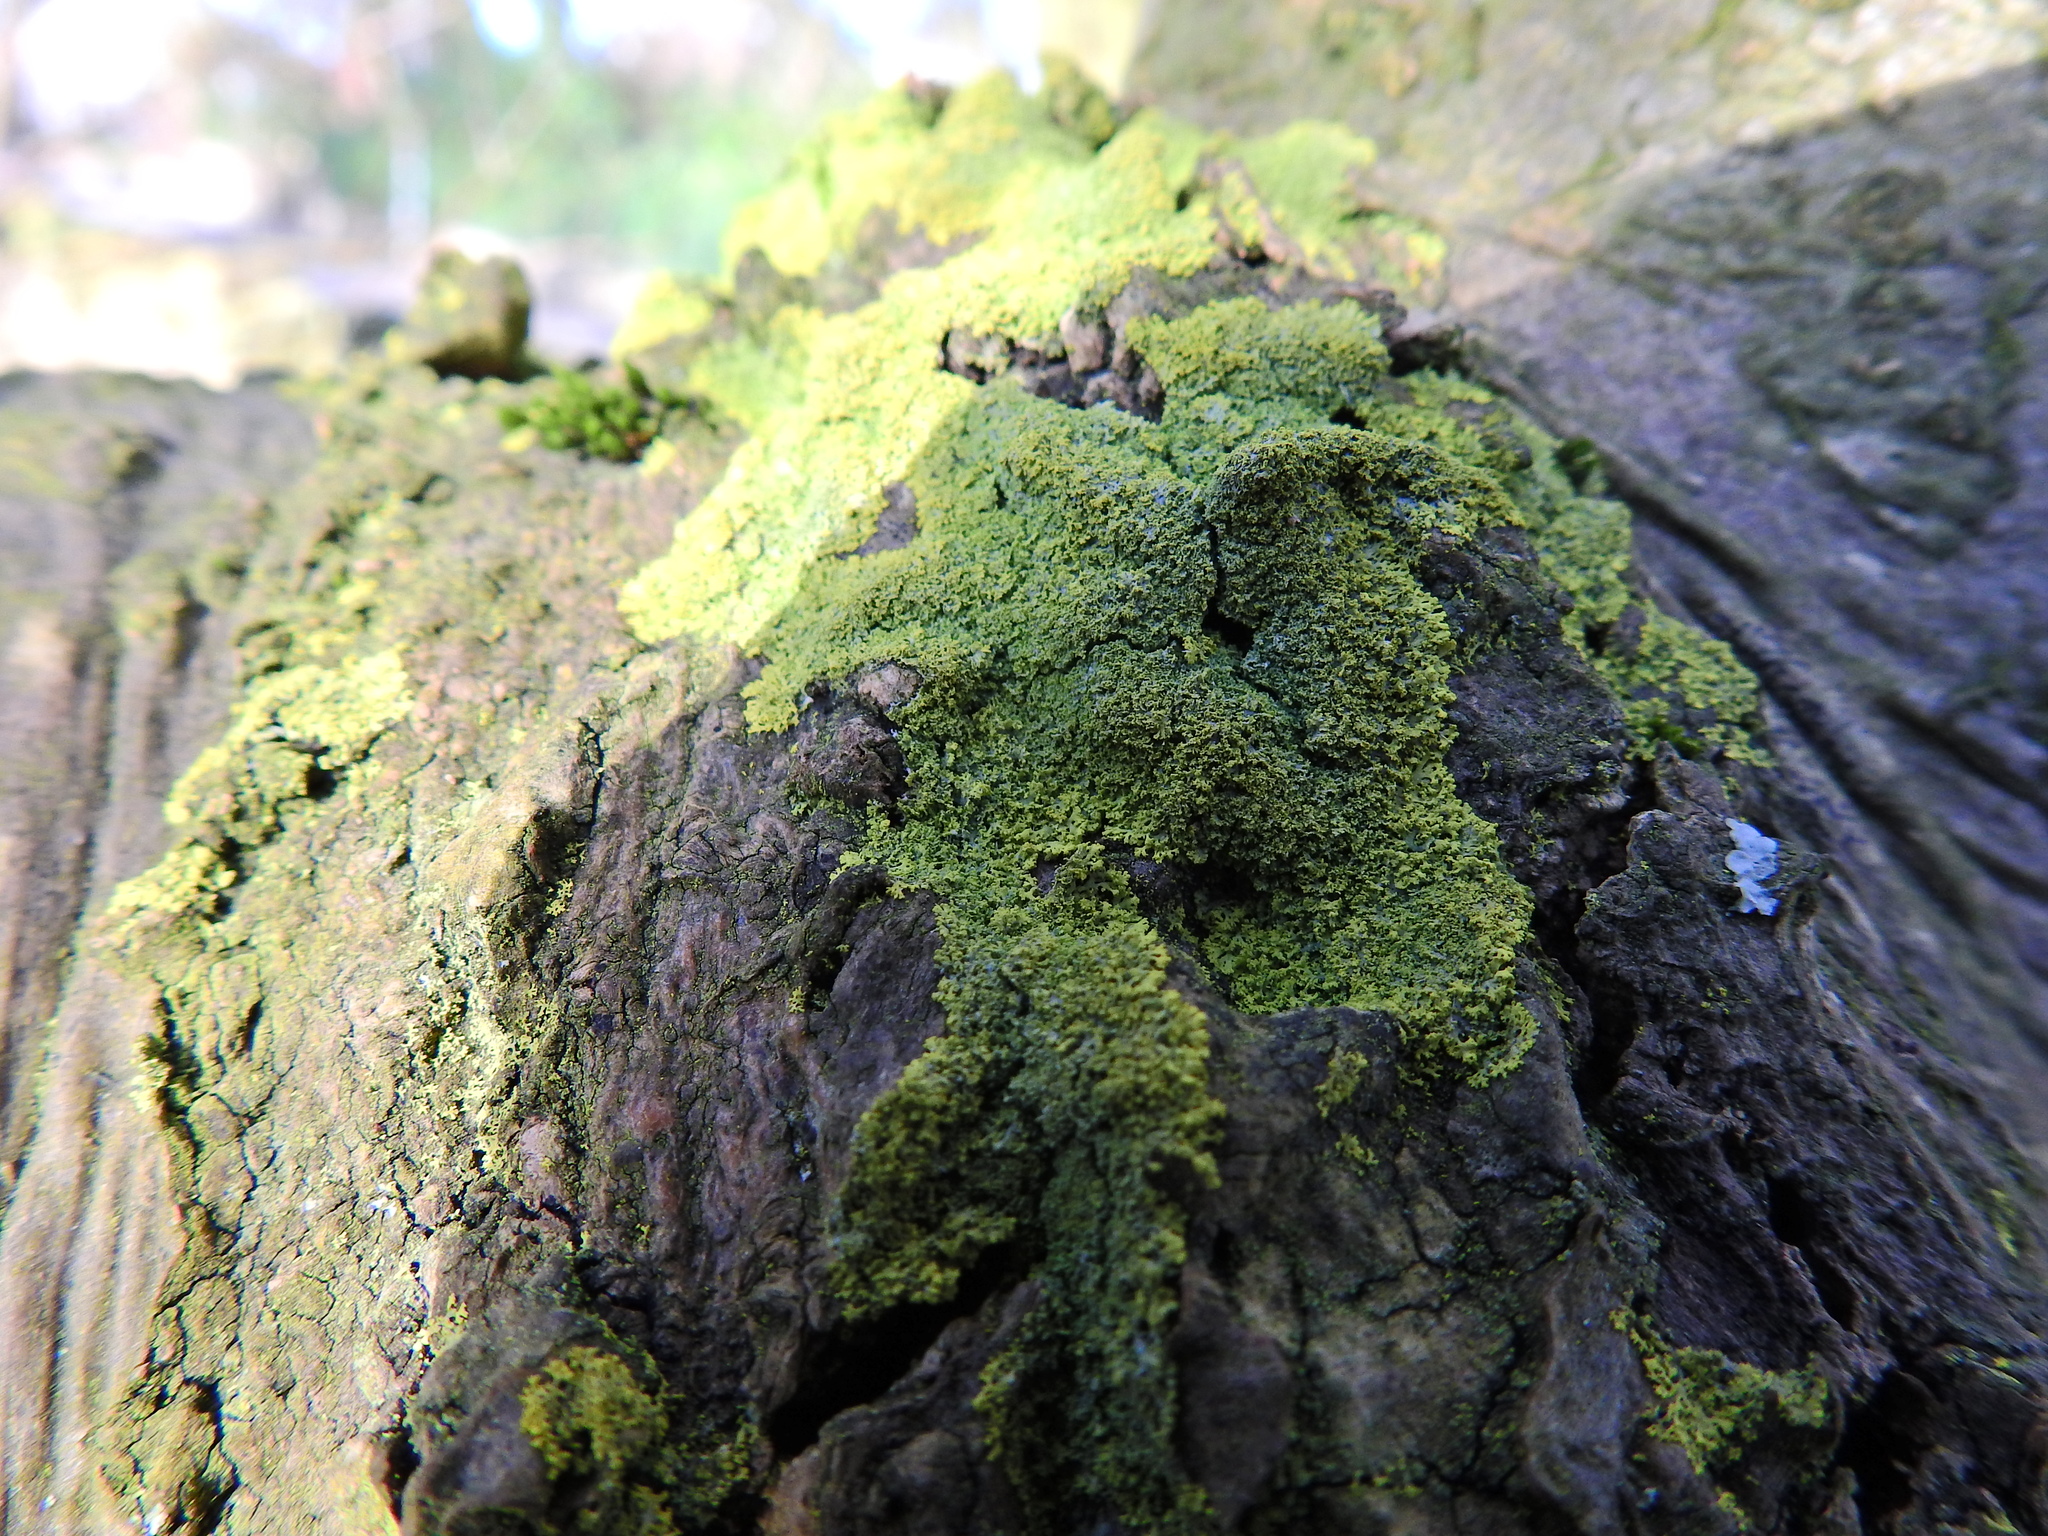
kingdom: Fungi
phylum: Ascomycota
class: Candelariomycetes
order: Candelariales
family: Candelariaceae
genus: Candelaria
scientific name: Candelaria concolor
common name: Candleflame lichen
